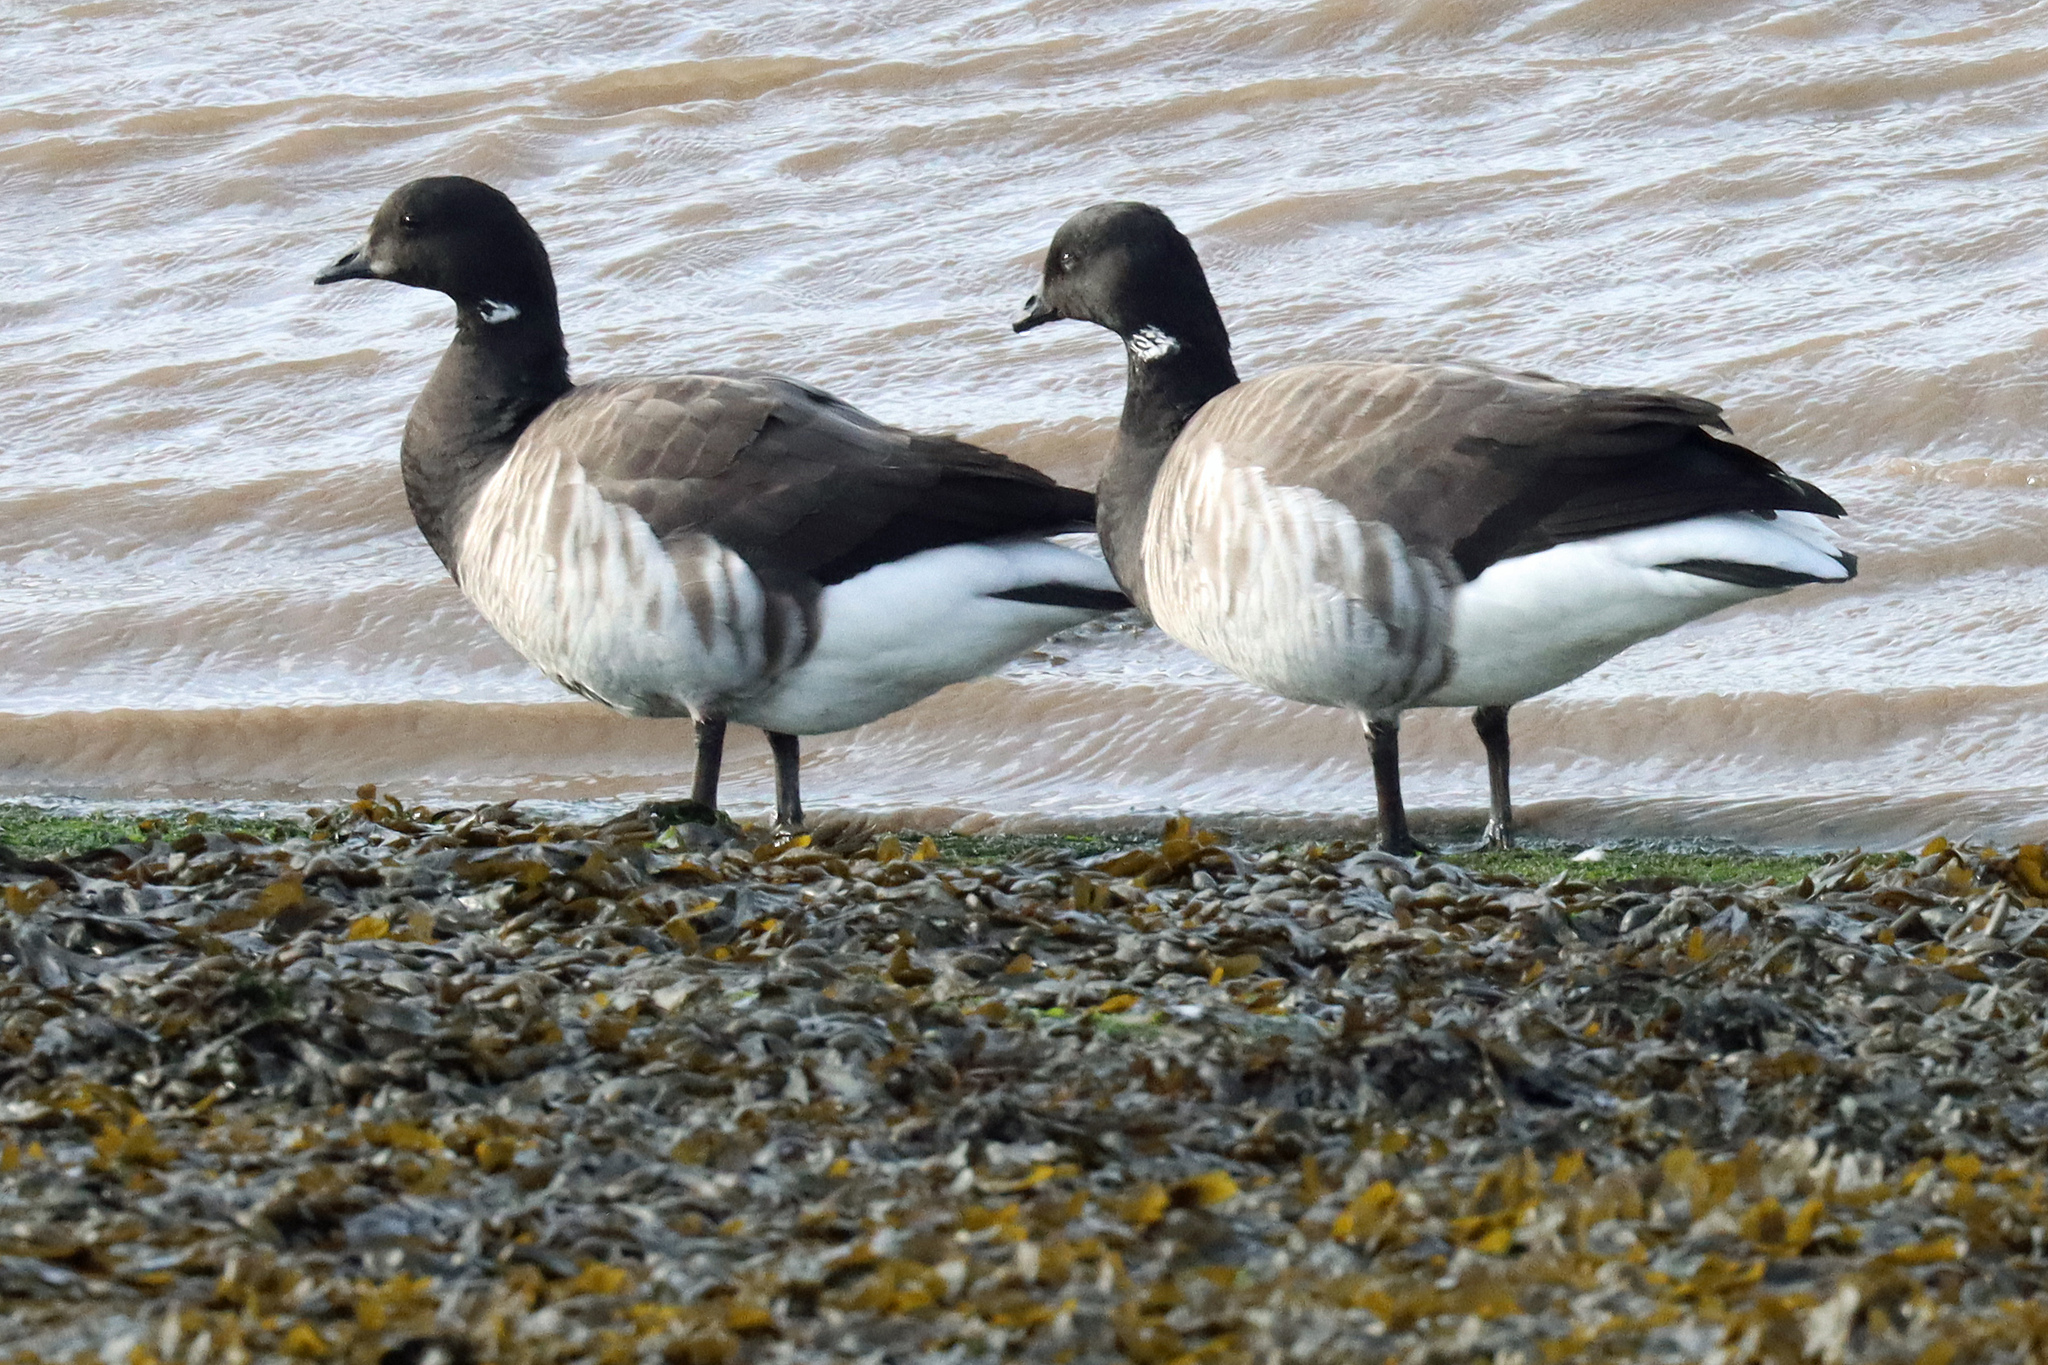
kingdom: Animalia
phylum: Chordata
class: Aves
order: Anseriformes
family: Anatidae
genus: Branta
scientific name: Branta bernicla
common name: Brant goose
